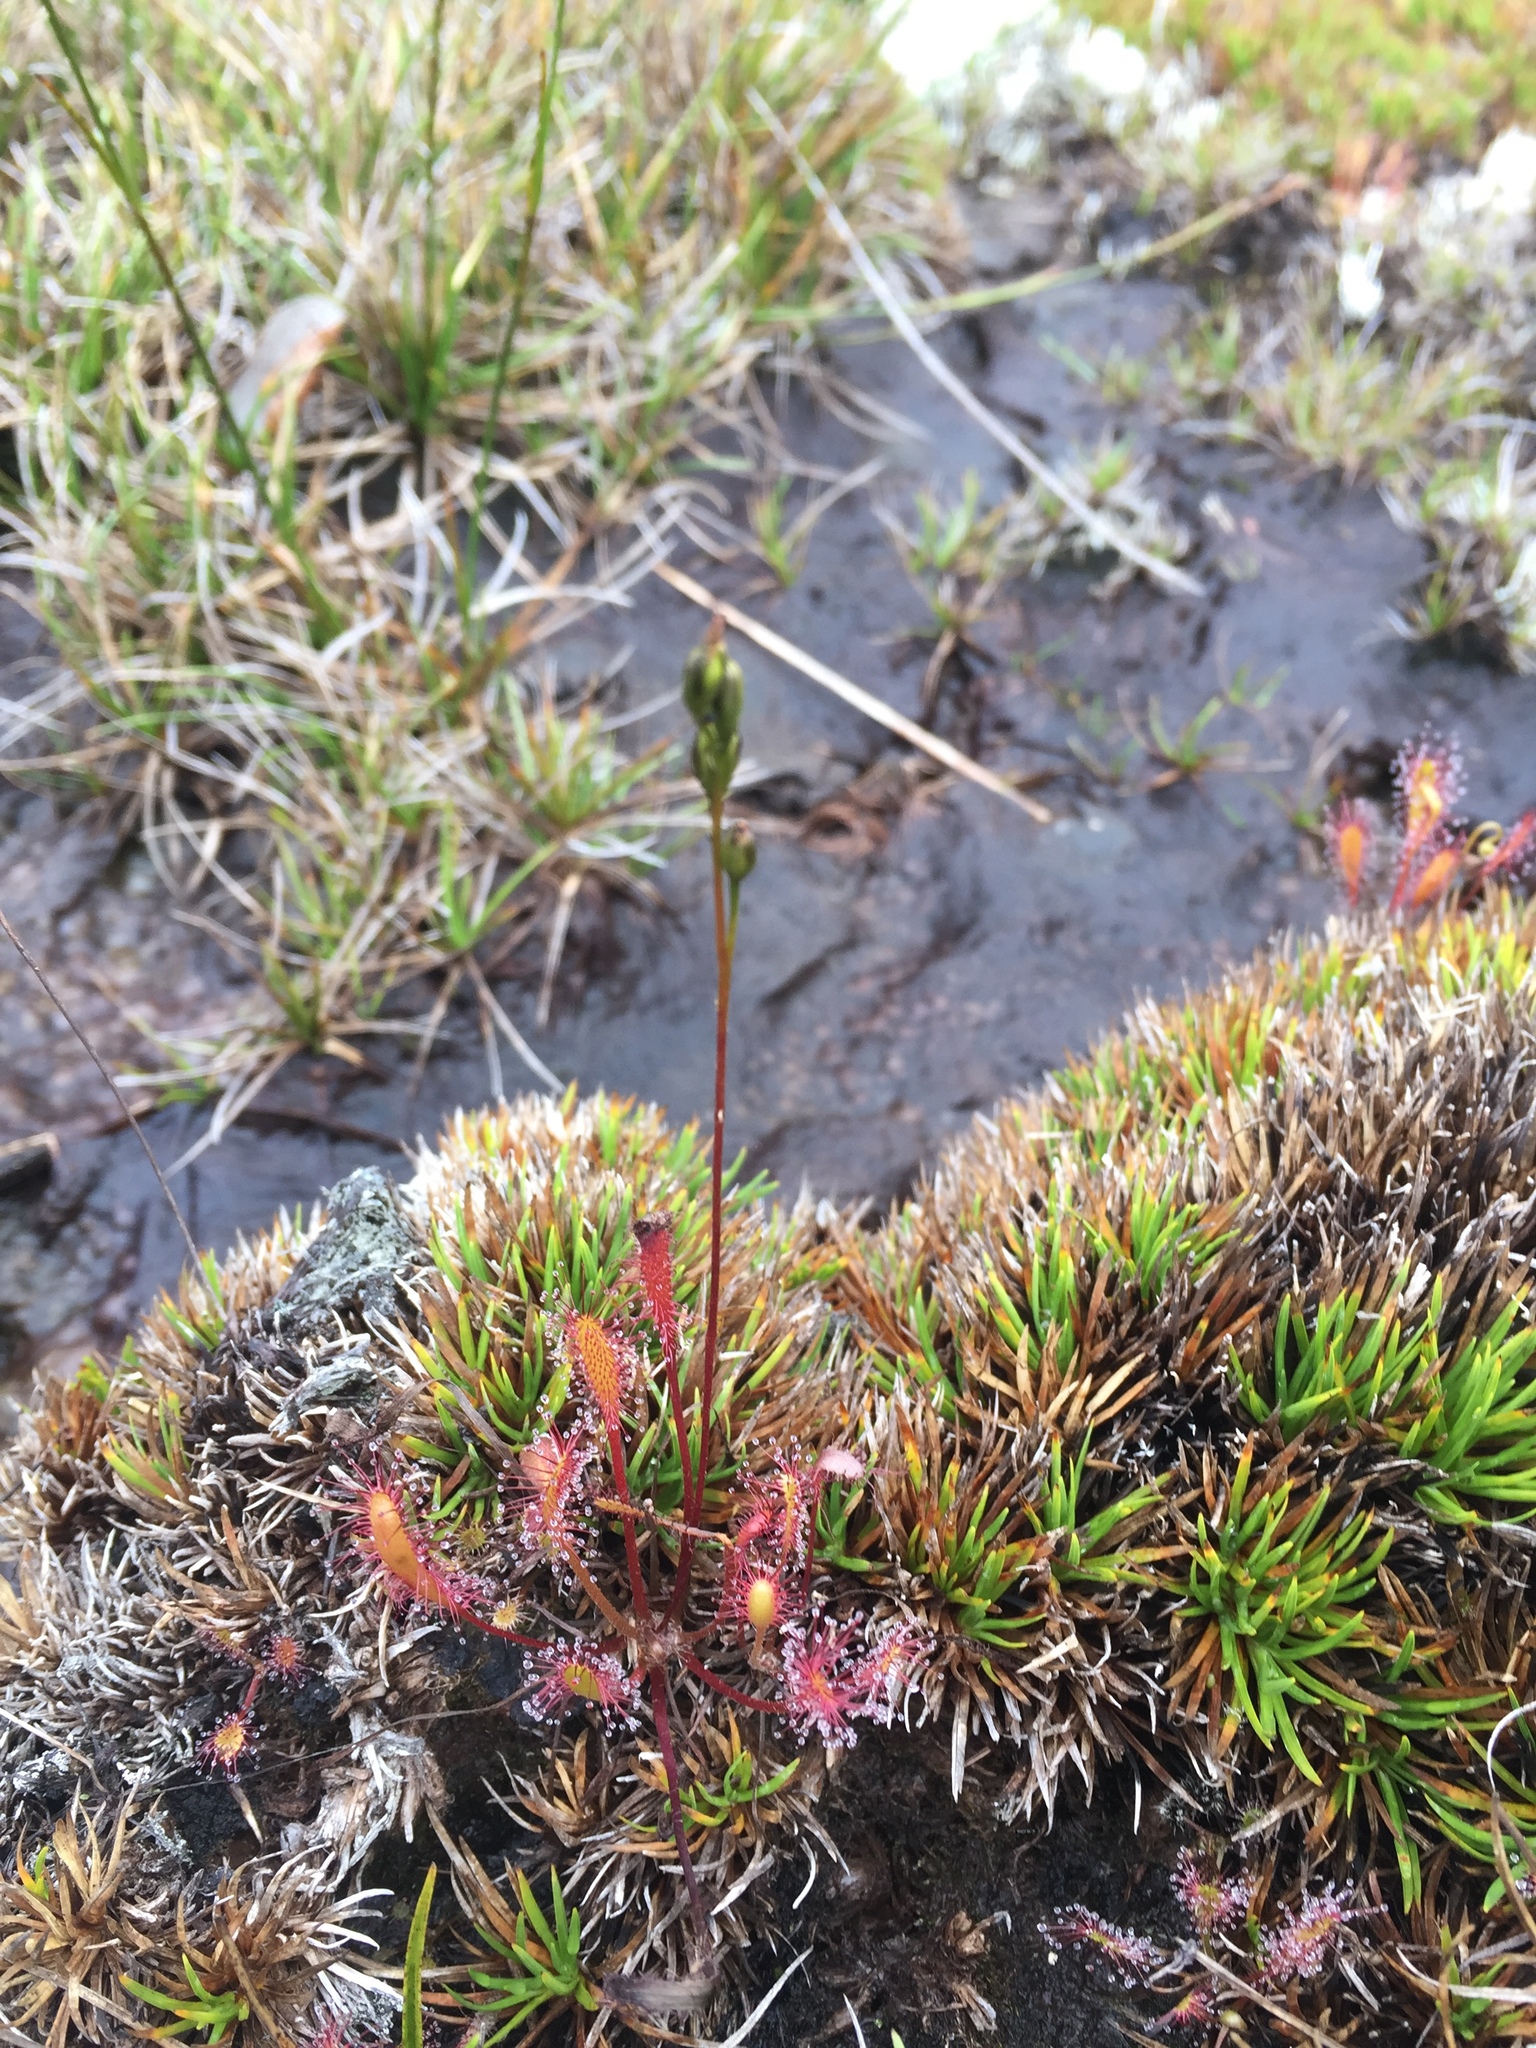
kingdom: Plantae
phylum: Tracheophyta
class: Magnoliopsida
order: Caryophyllales
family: Droseraceae
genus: Drosera
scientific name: Drosera anglica
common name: Great sundew
